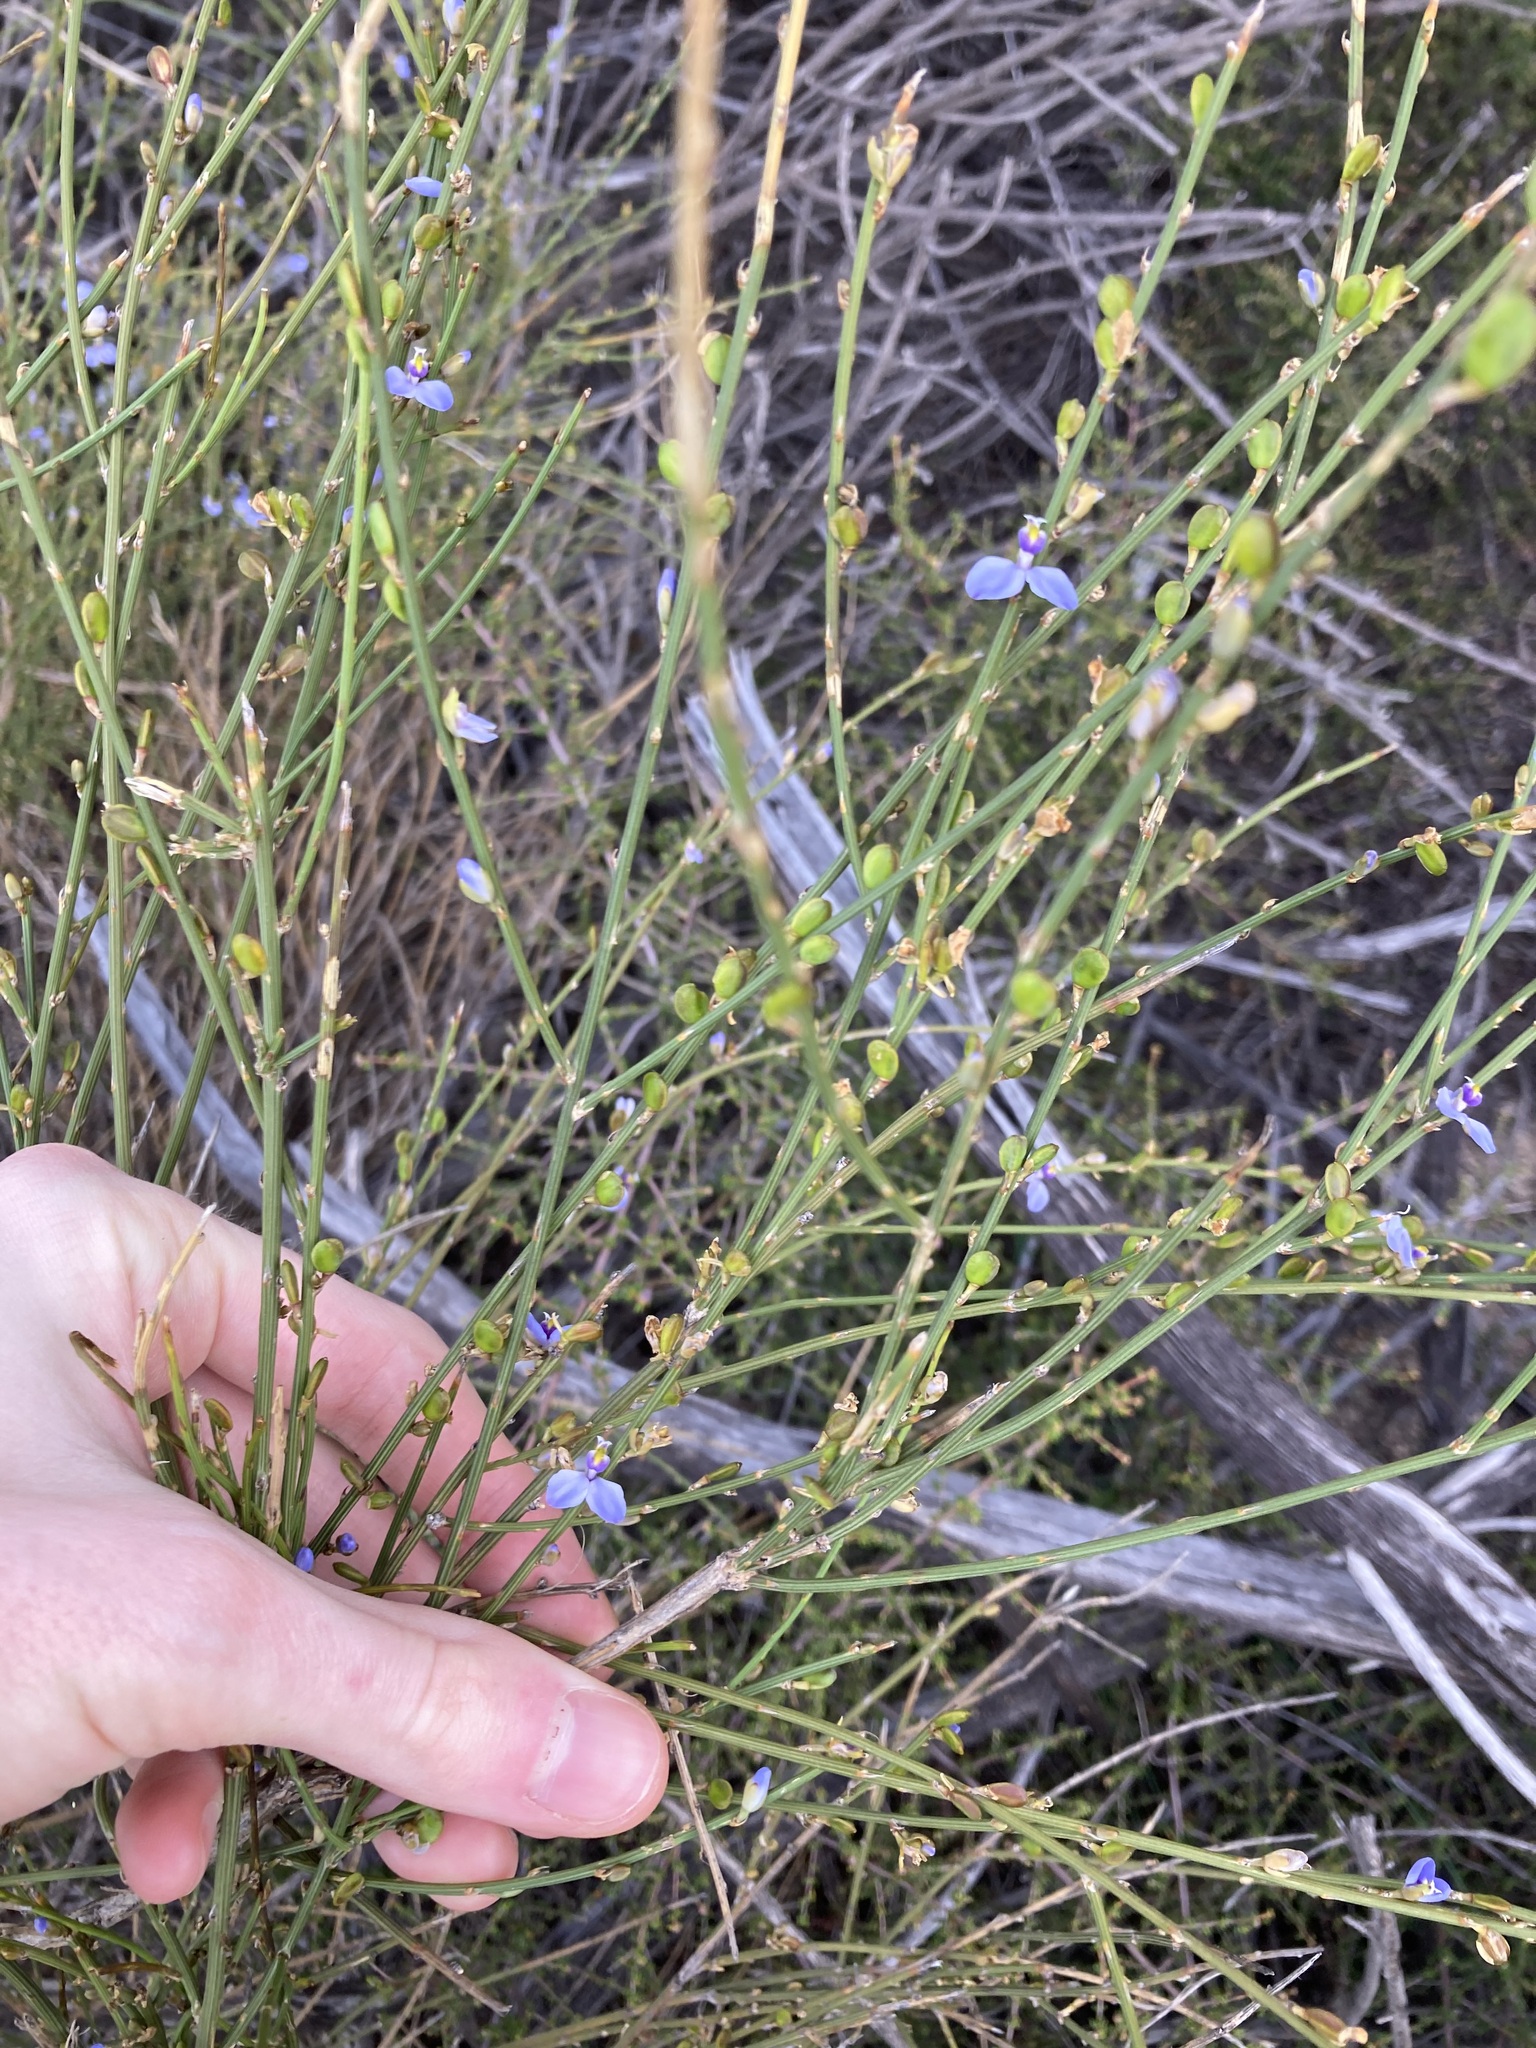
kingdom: Plantae
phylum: Tracheophyta
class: Magnoliopsida
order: Fabales
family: Polygalaceae
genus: Comesperma
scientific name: Comesperma scoparium
